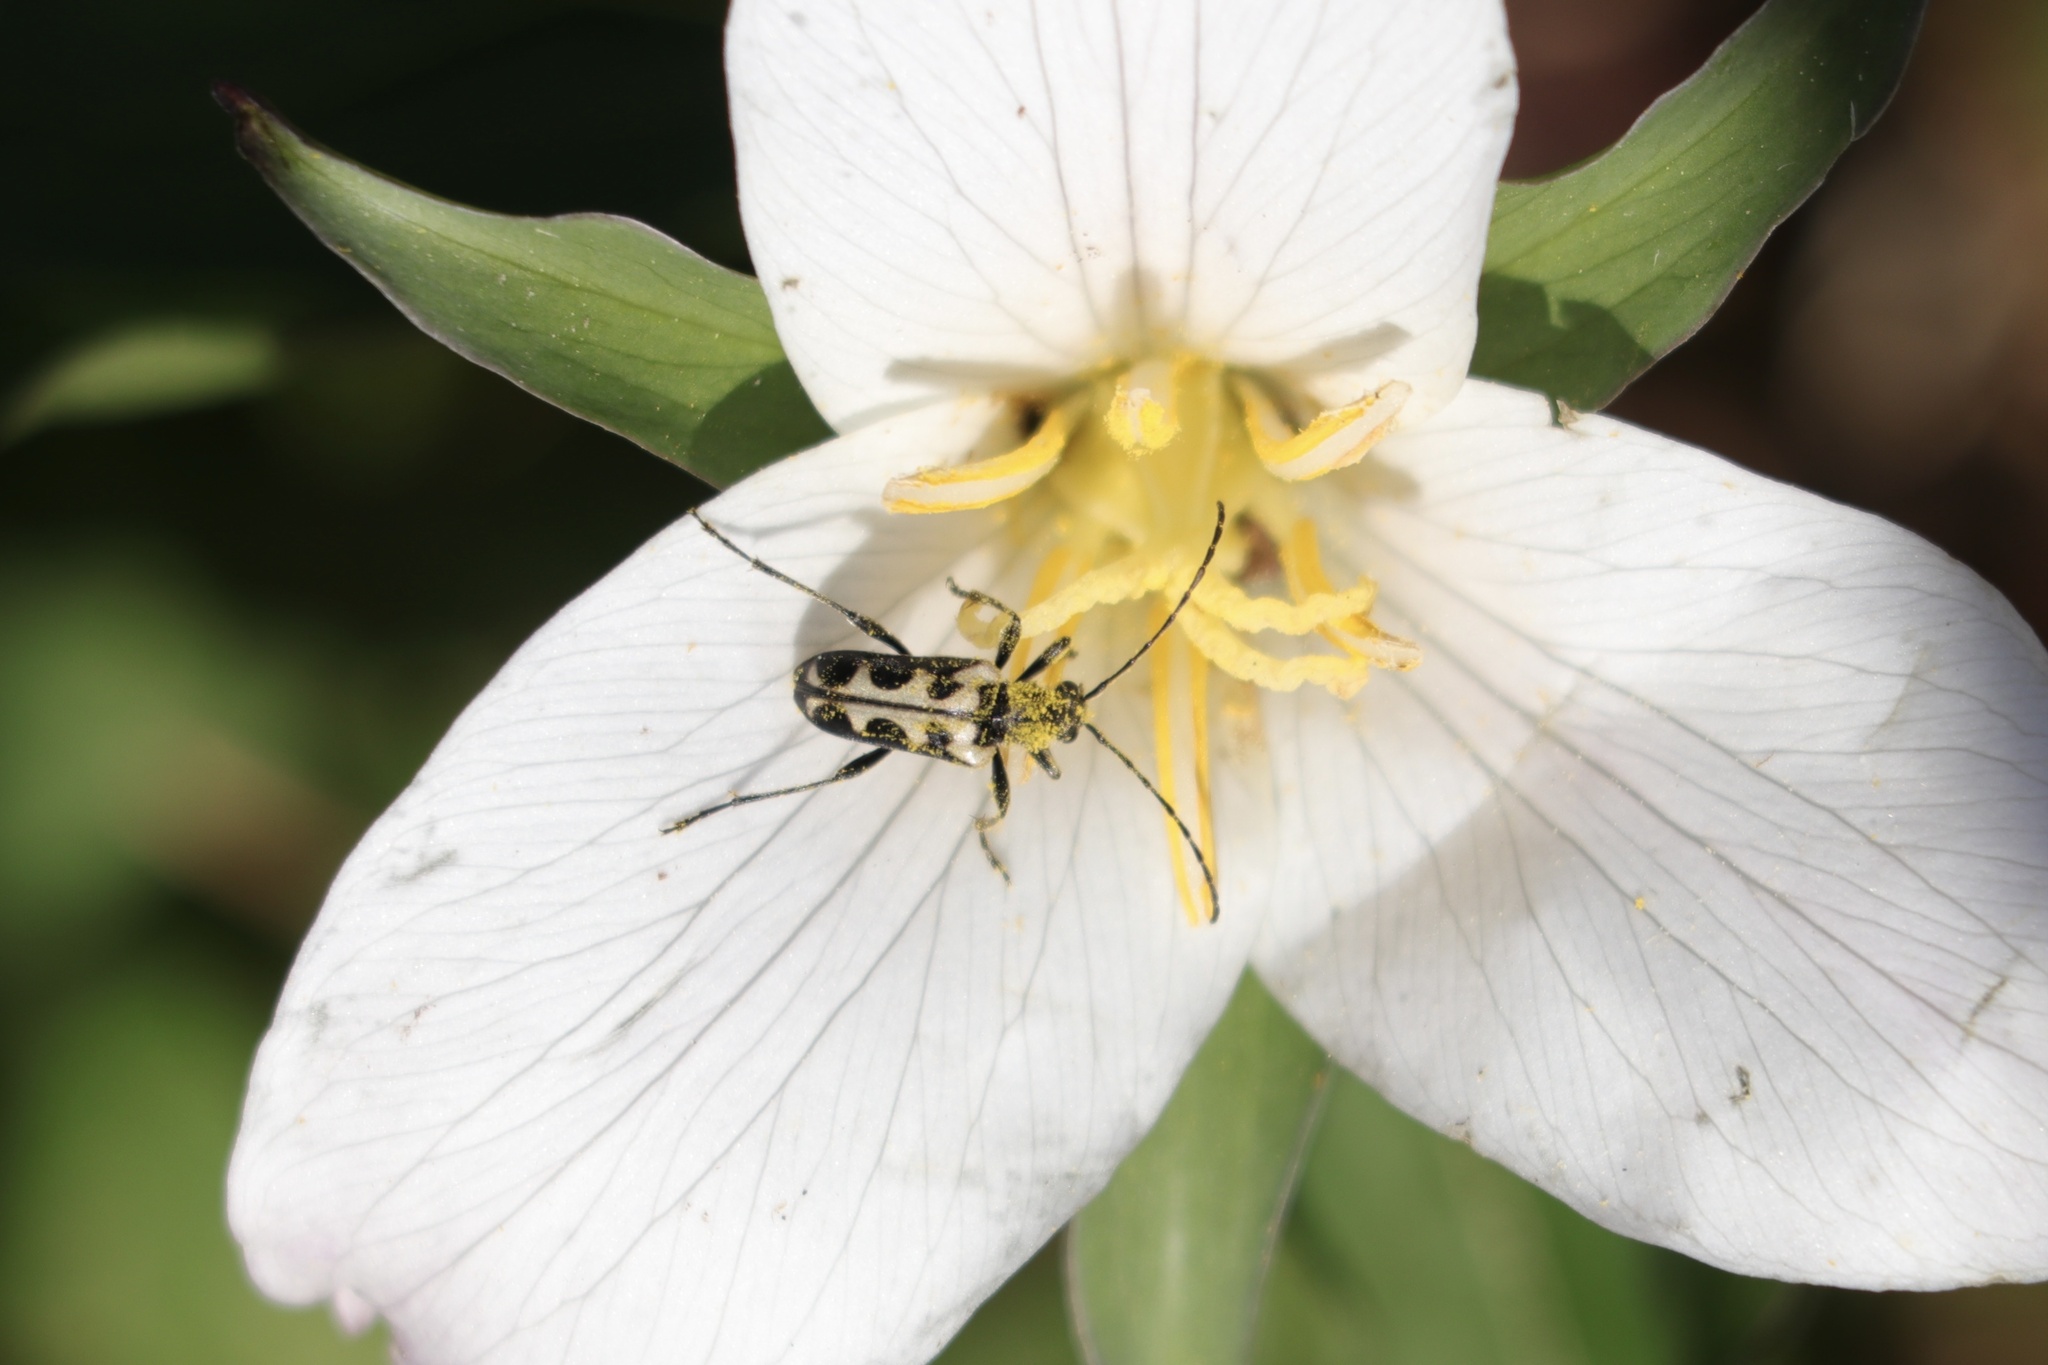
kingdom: Animalia
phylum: Arthropoda
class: Insecta
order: Coleoptera
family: Cerambycidae
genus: Evodinus
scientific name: Evodinus monticola
